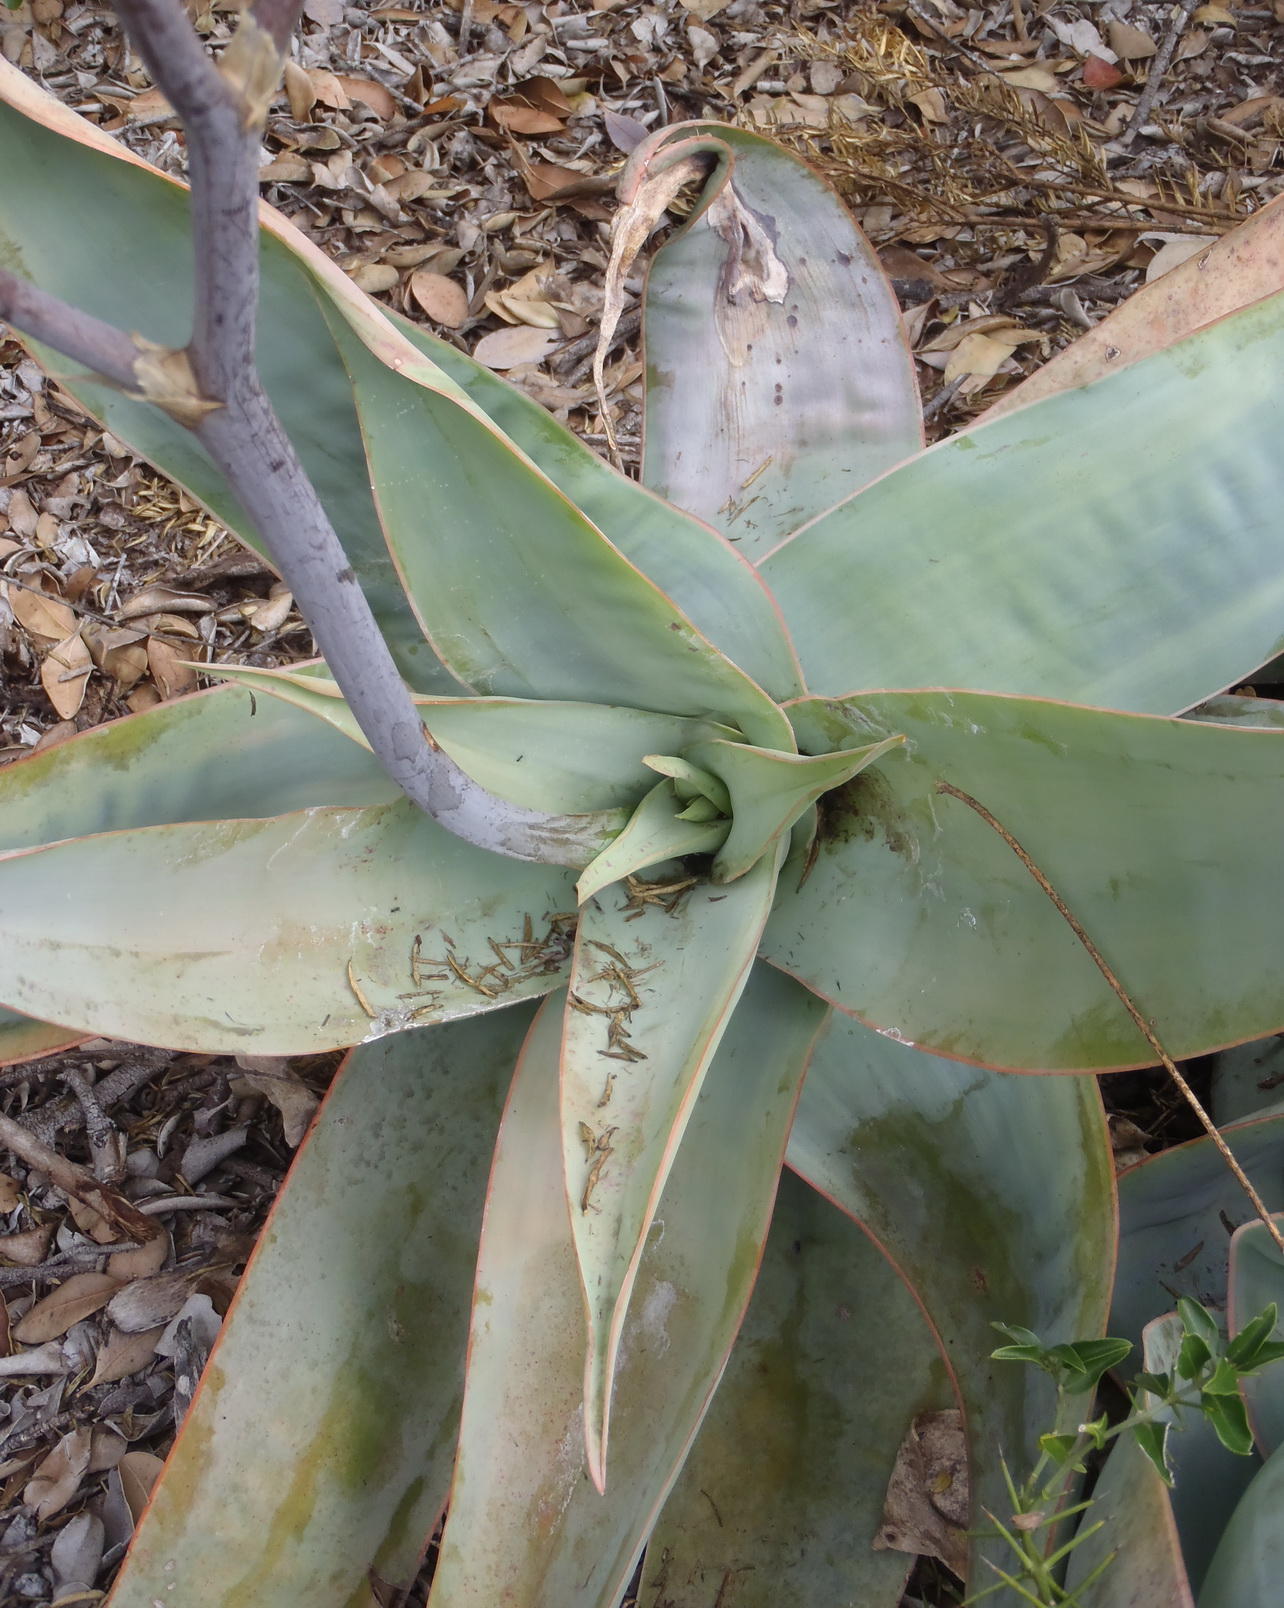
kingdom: Plantae
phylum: Tracheophyta
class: Liliopsida
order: Asparagales
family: Asphodelaceae
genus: Aloe
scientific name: Aloe striata
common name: Coral aloe
